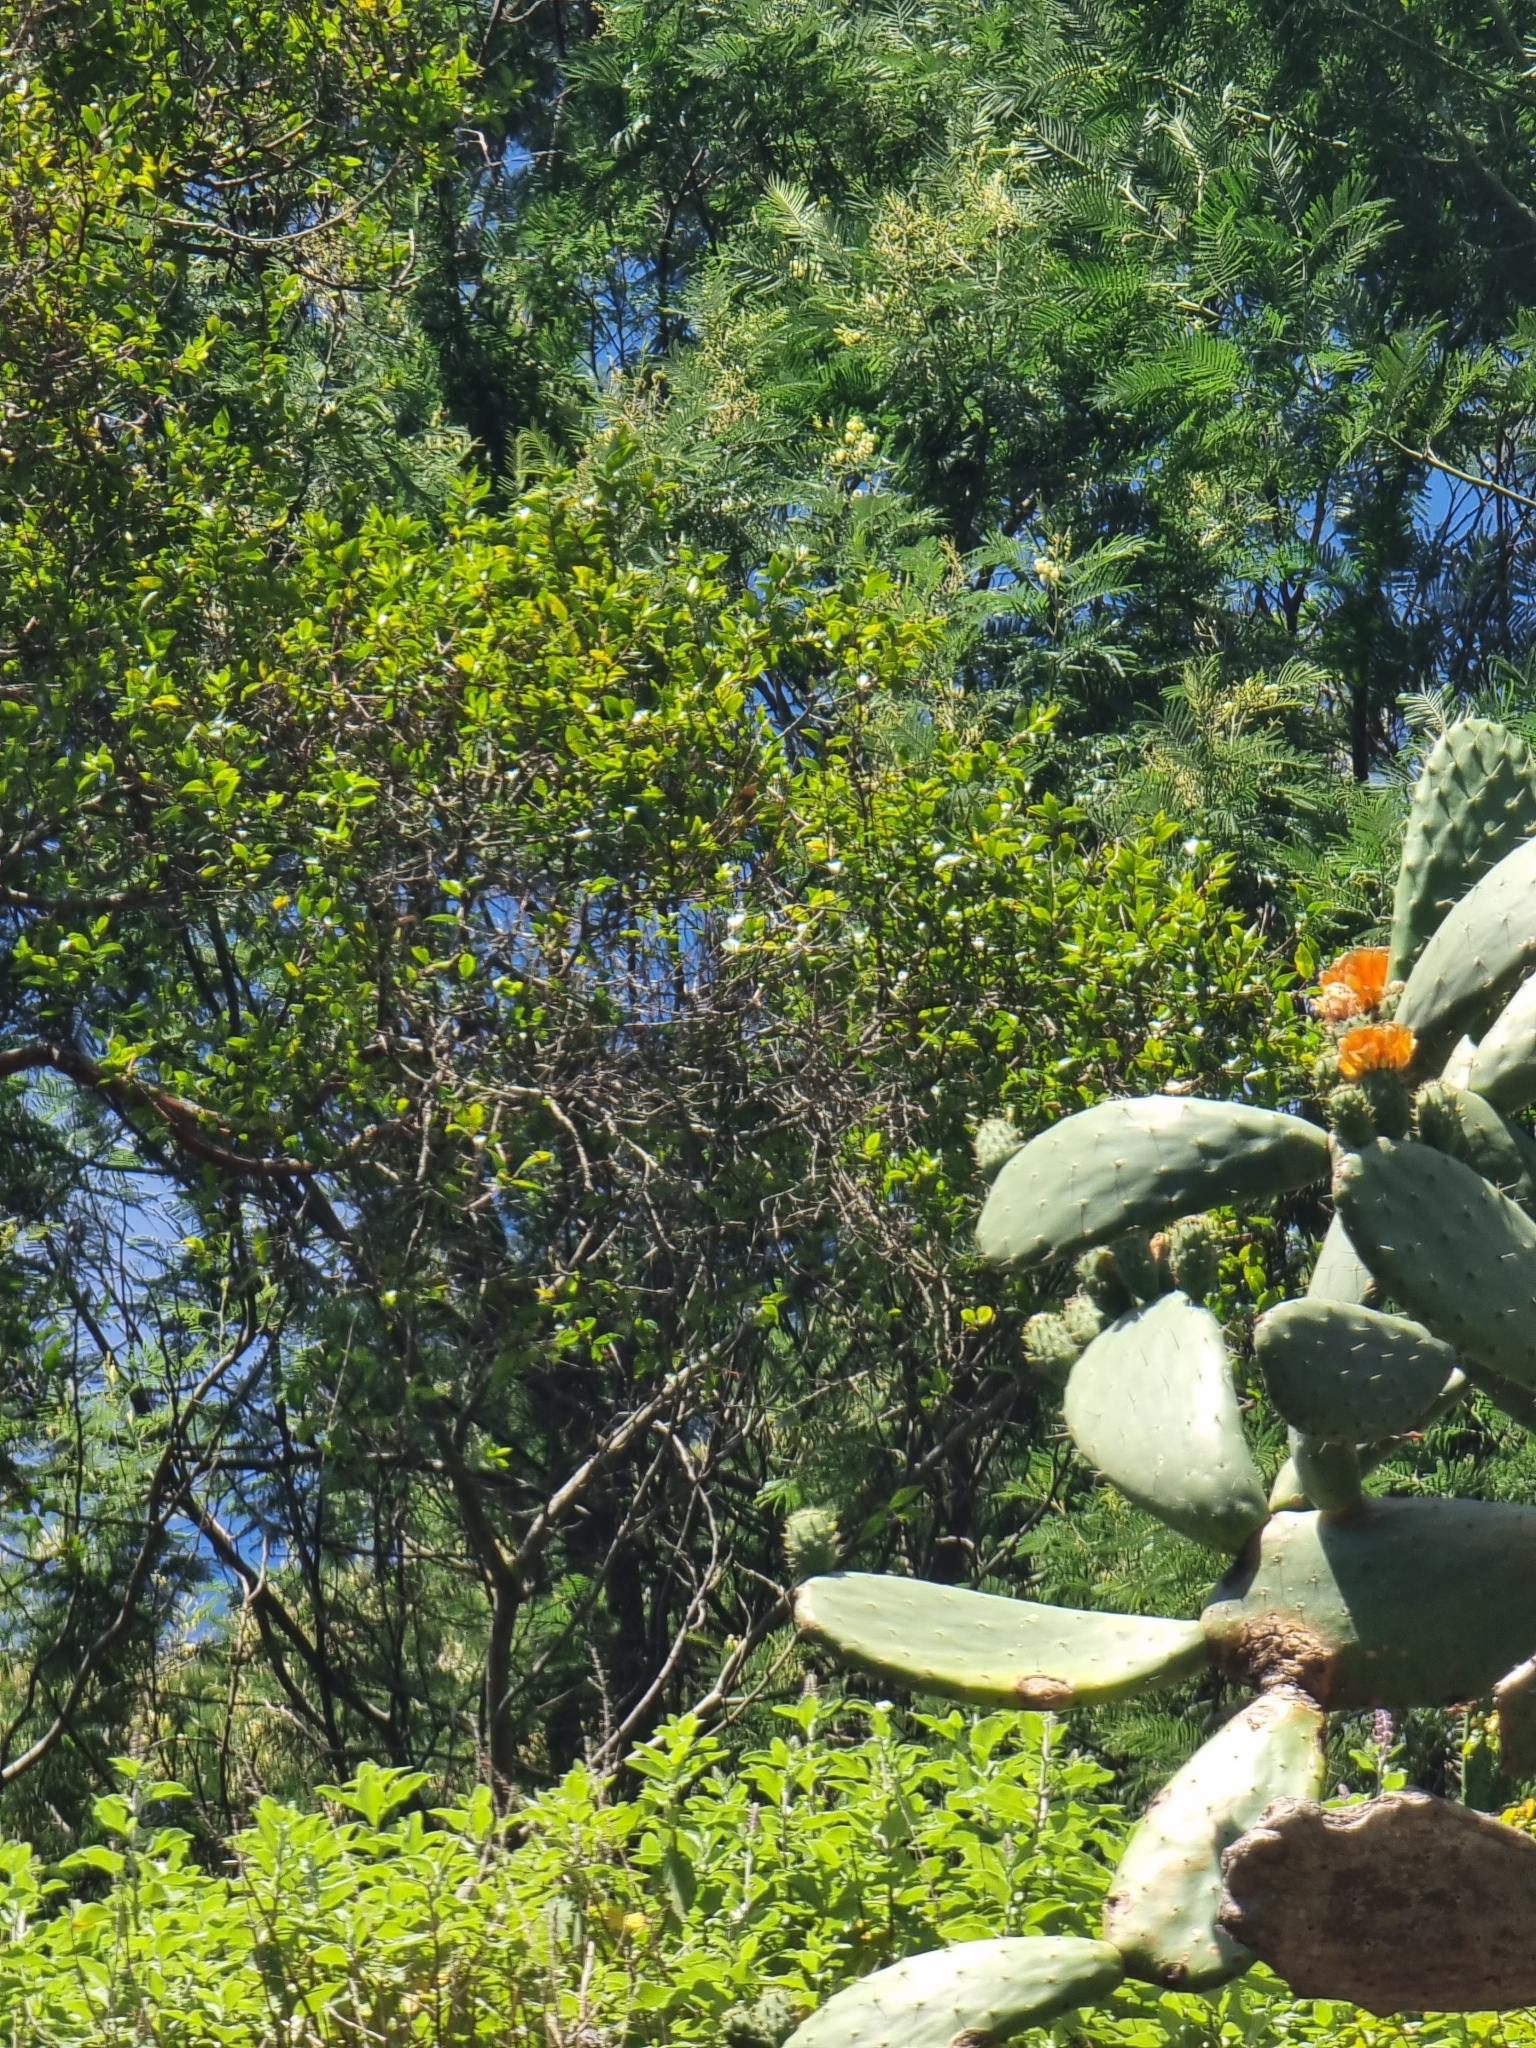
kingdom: Plantae
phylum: Tracheophyta
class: Magnoliopsida
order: Myrtales
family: Myrtaceae
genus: Myrtus
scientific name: Myrtus communis
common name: Myrtle
